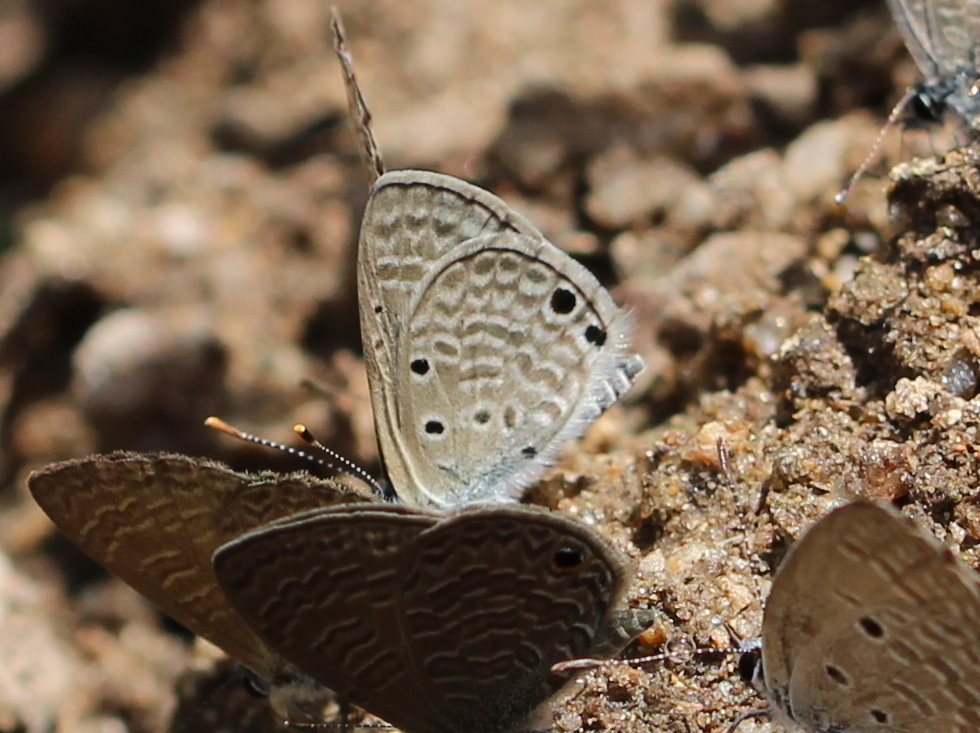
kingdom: Animalia
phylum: Arthropoda
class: Insecta
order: Lepidoptera
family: Lycaenidae
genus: Azanus
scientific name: Azanus ubaldus
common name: Desert babul blue
